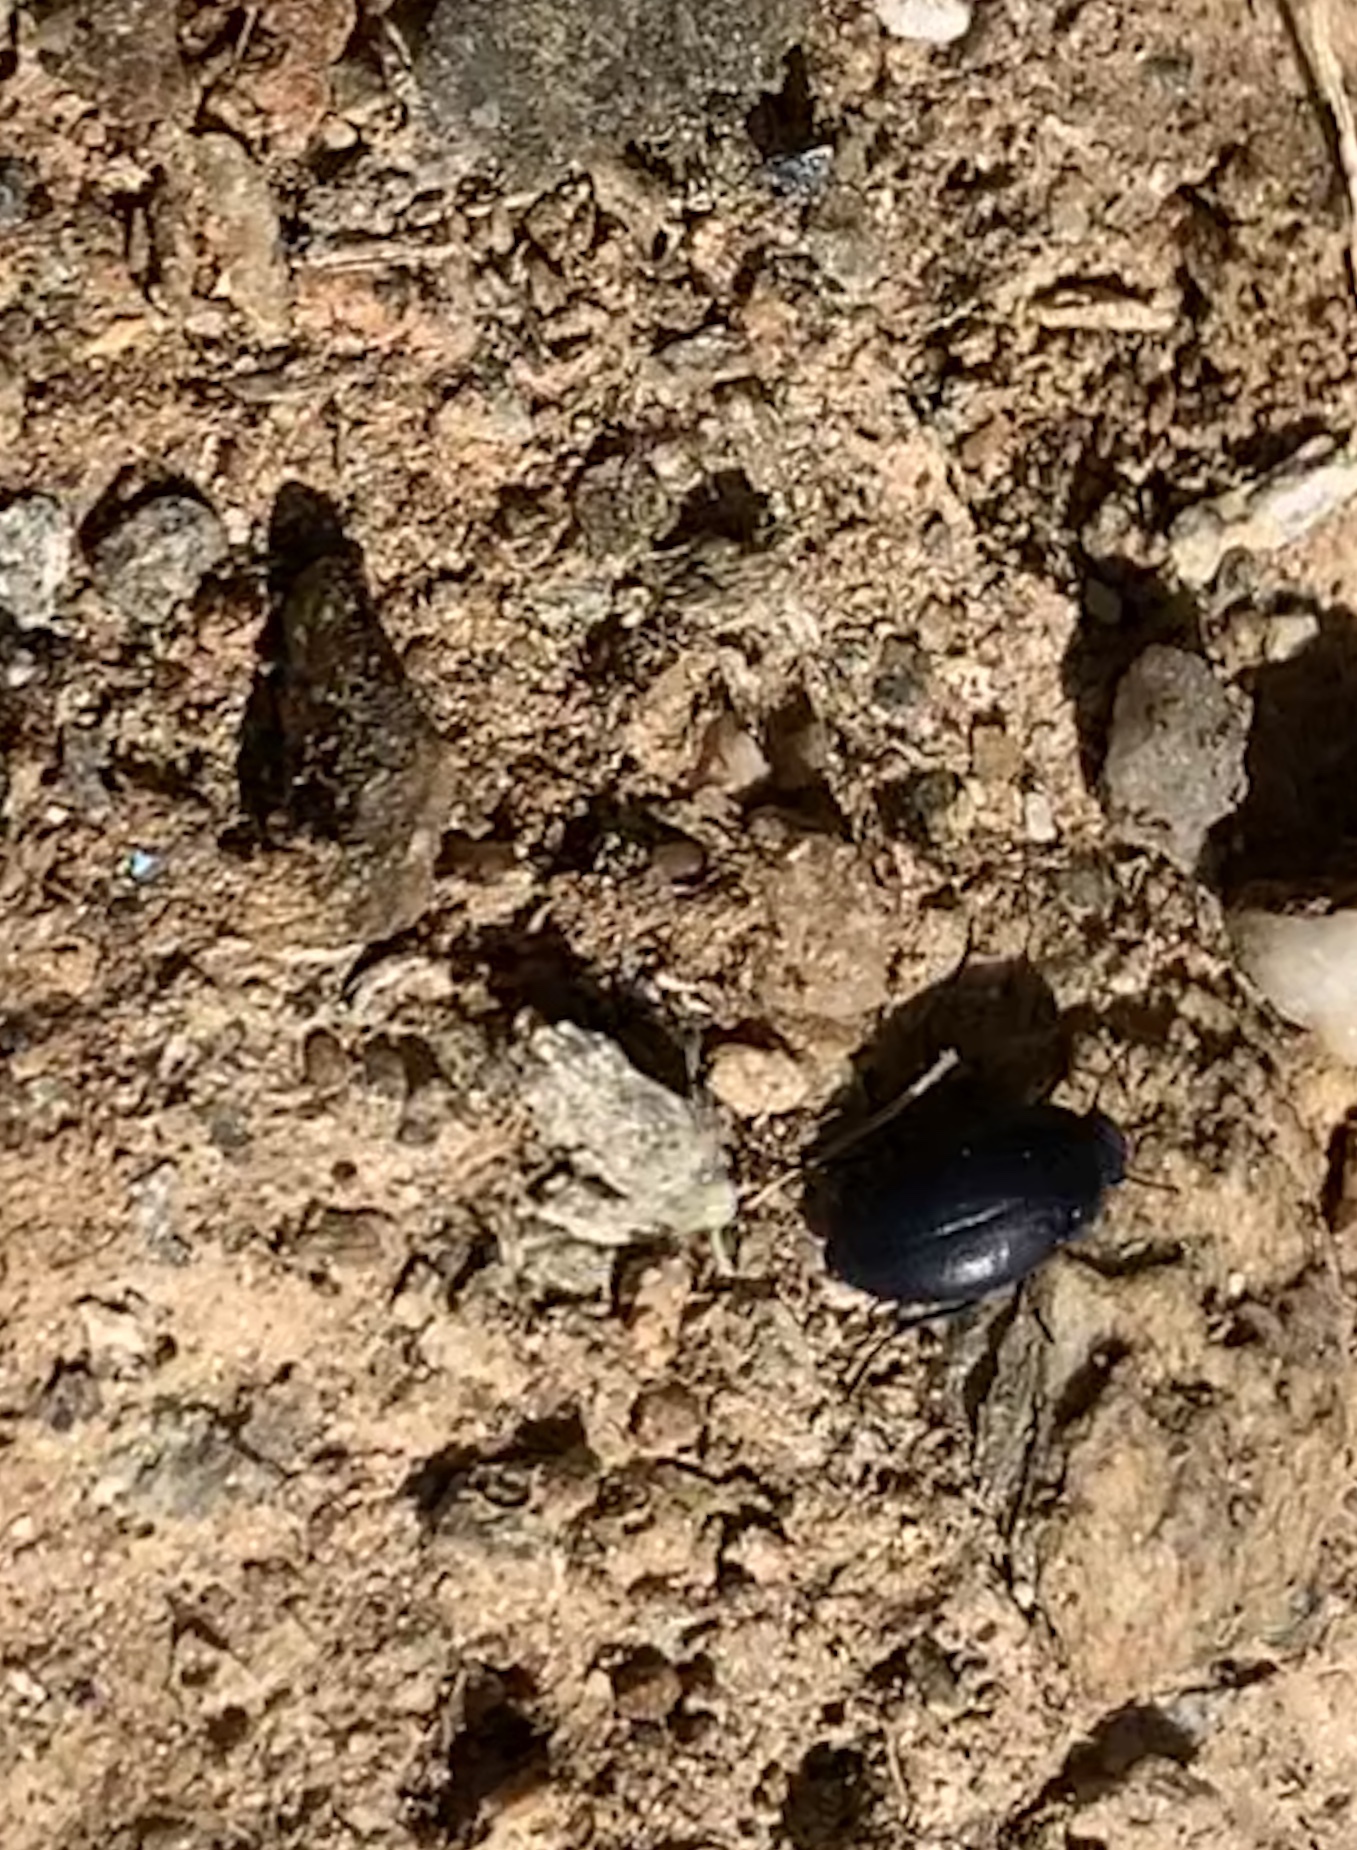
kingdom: Animalia
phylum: Arthropoda
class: Insecta
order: Coleoptera
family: Tenebrionidae
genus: Zophosis
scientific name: Zophosis punctata
